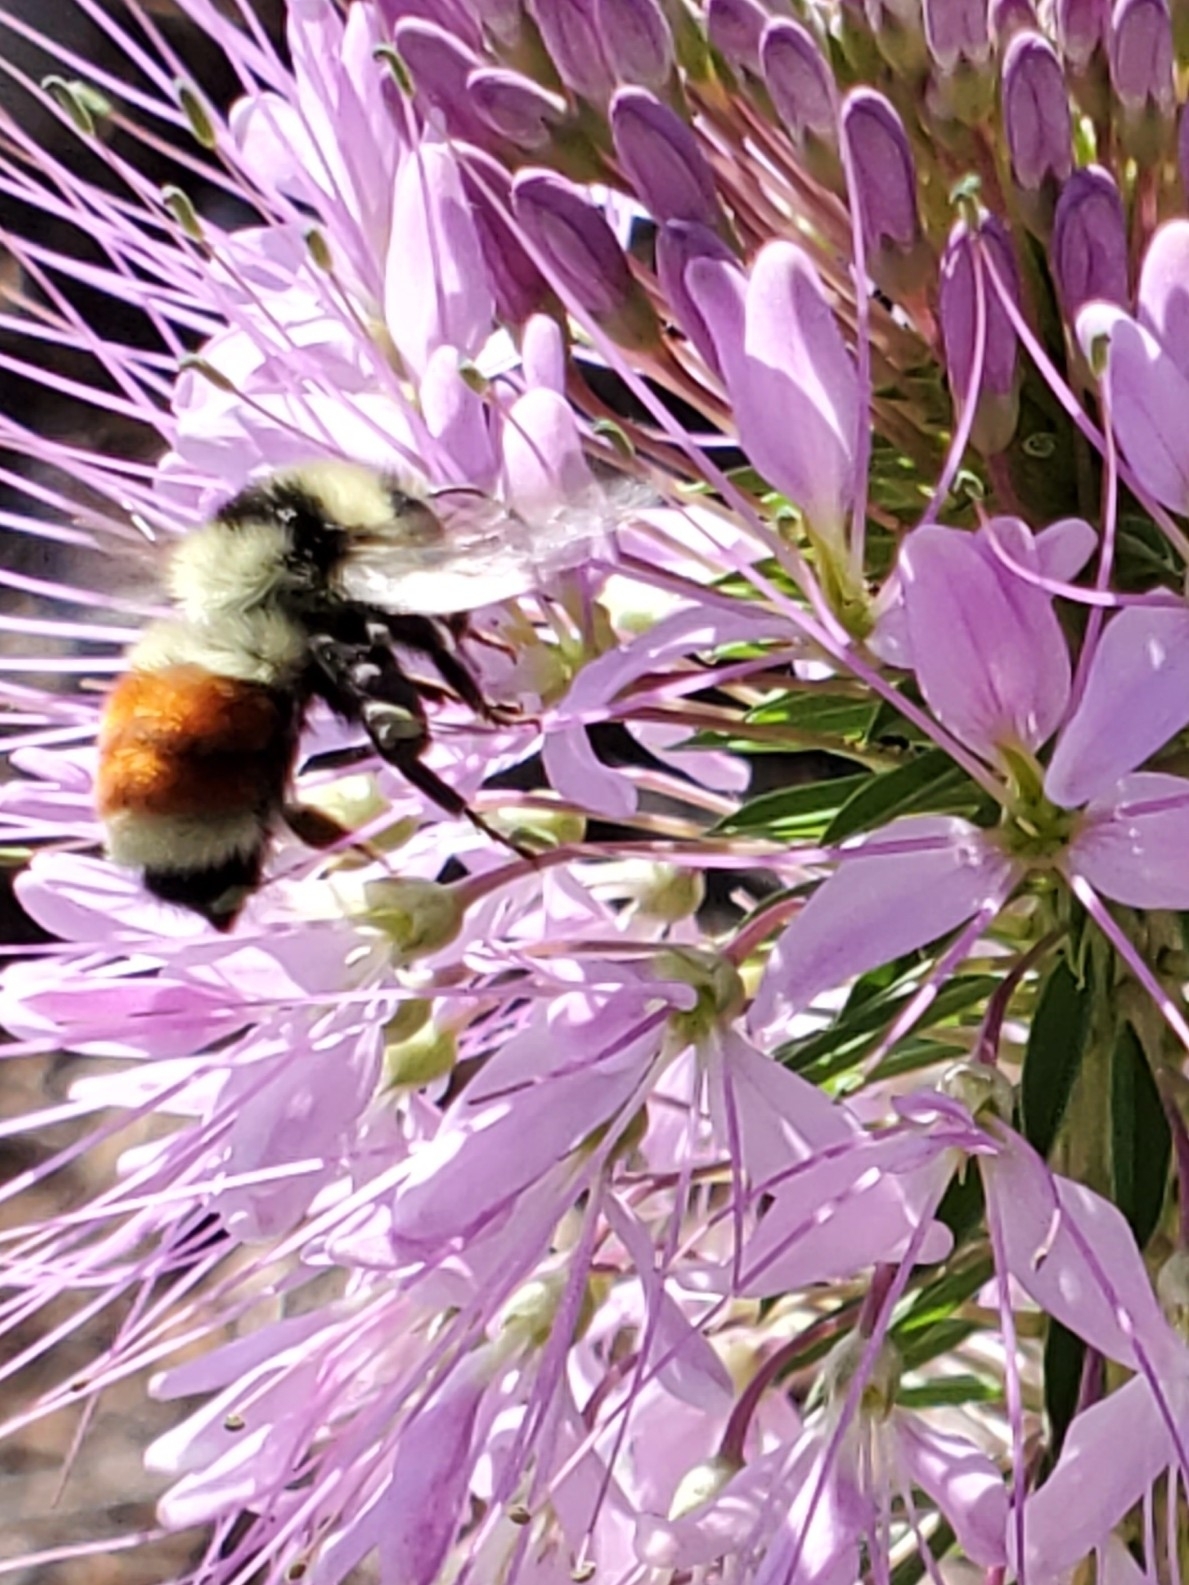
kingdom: Animalia
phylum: Arthropoda
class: Insecta
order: Hymenoptera
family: Apidae
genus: Bombus
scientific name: Bombus huntii
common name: Hunt bumble bee
